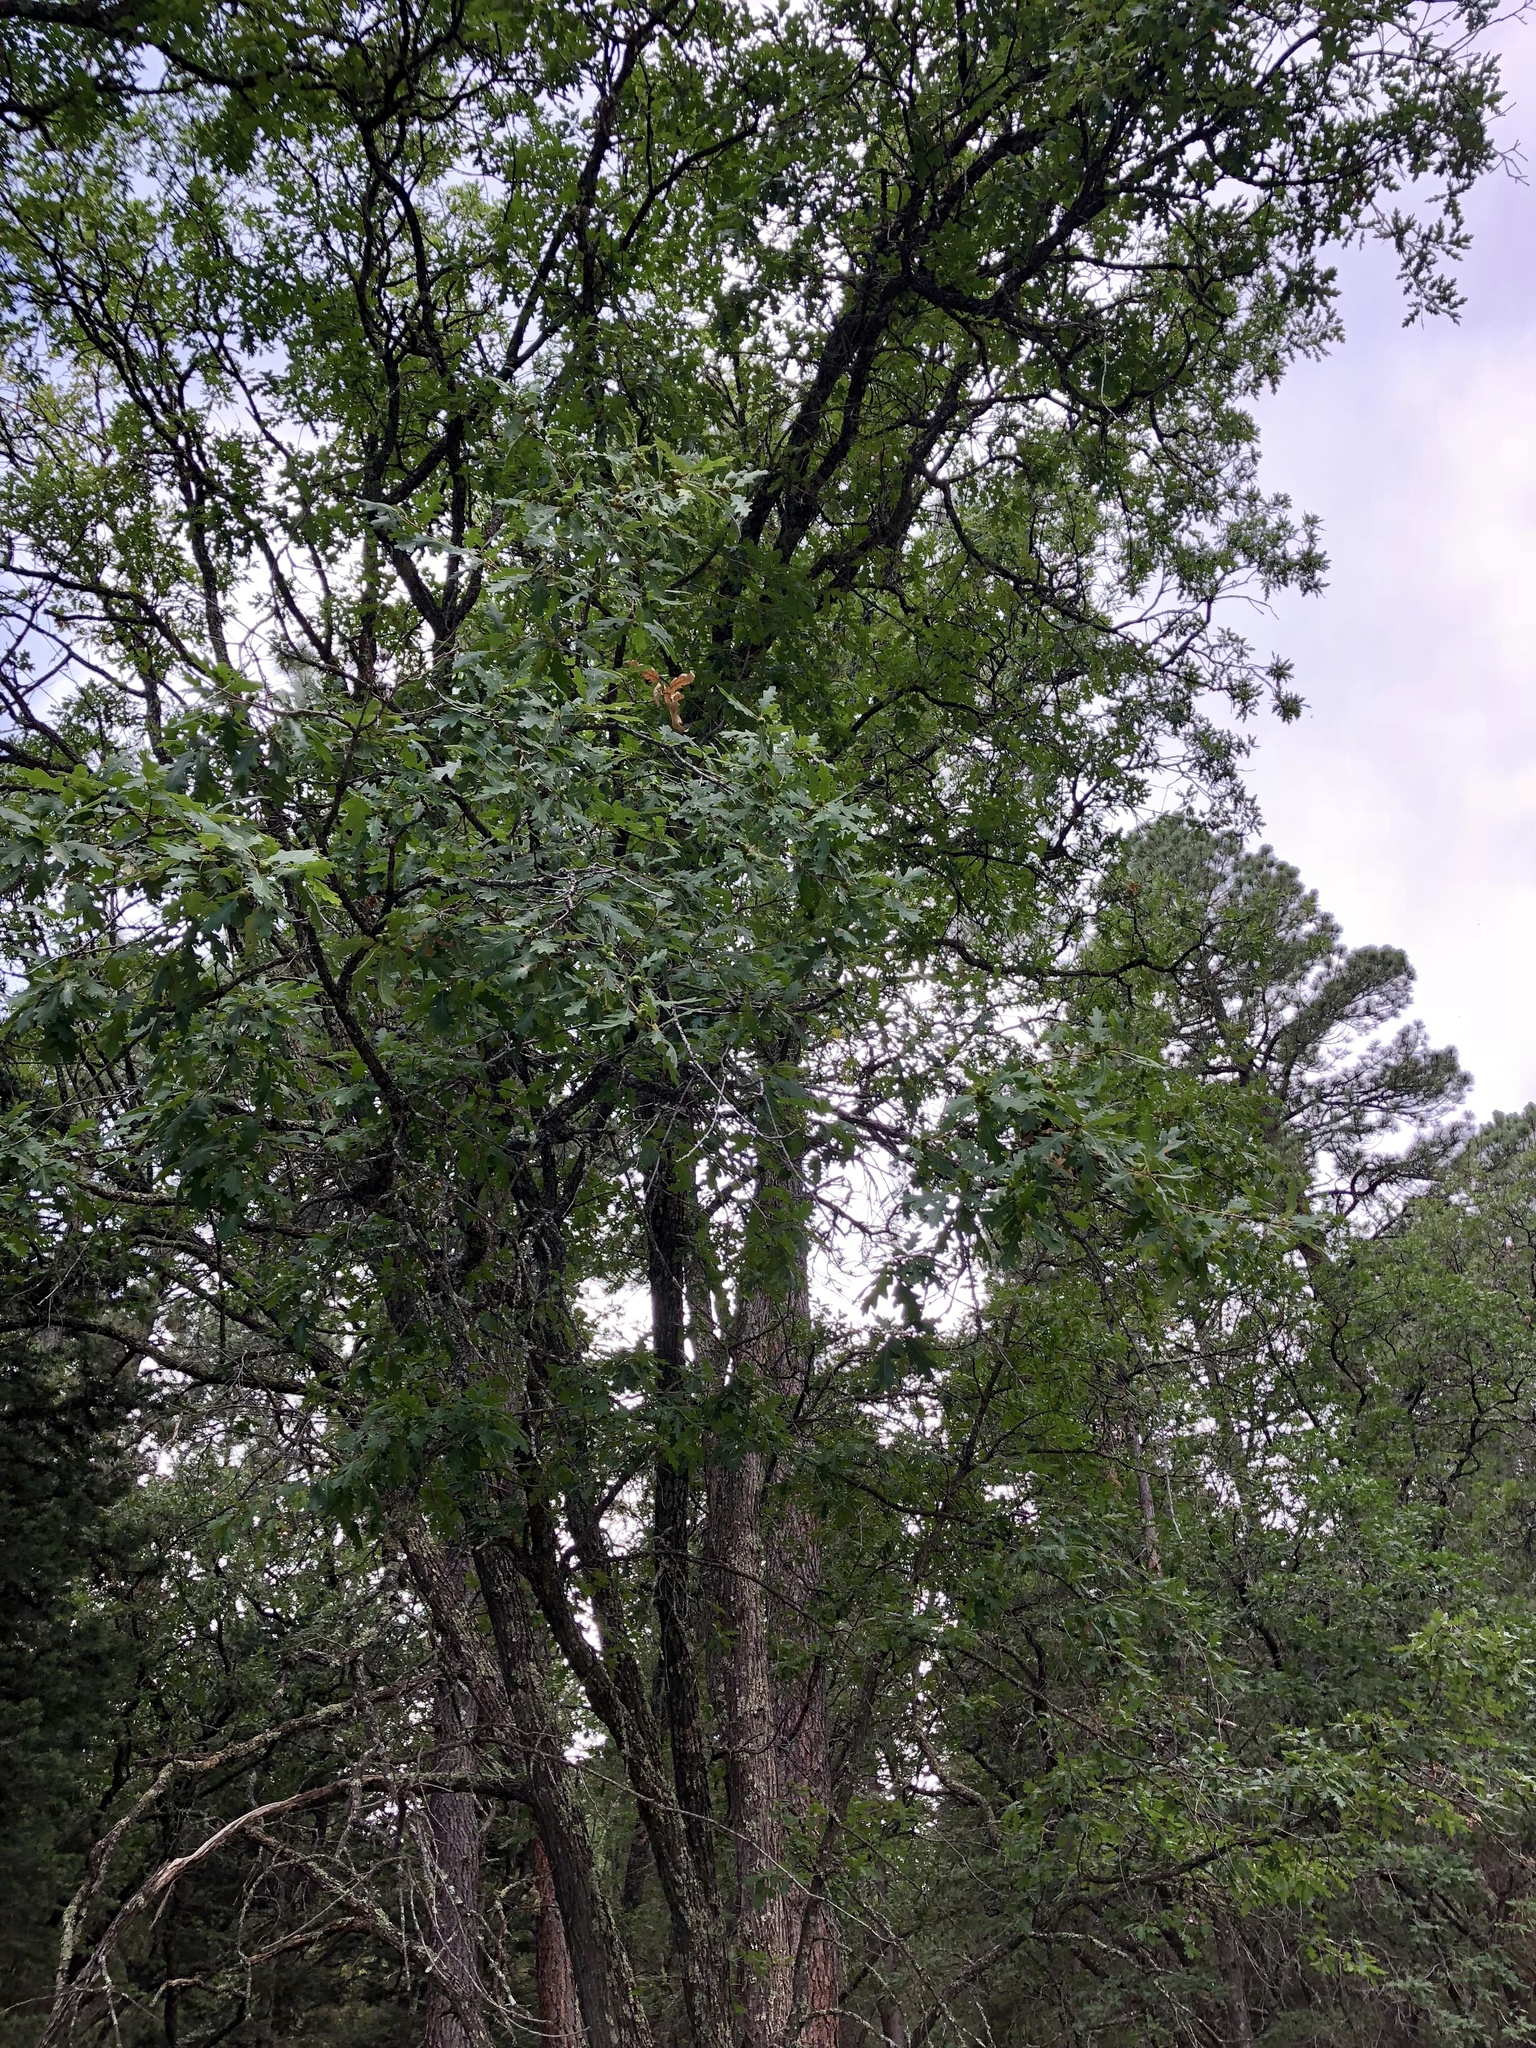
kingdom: Plantae
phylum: Tracheophyta
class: Magnoliopsida
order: Fagales
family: Fagaceae
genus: Quercus
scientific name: Quercus gambelii
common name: Gambel oak
